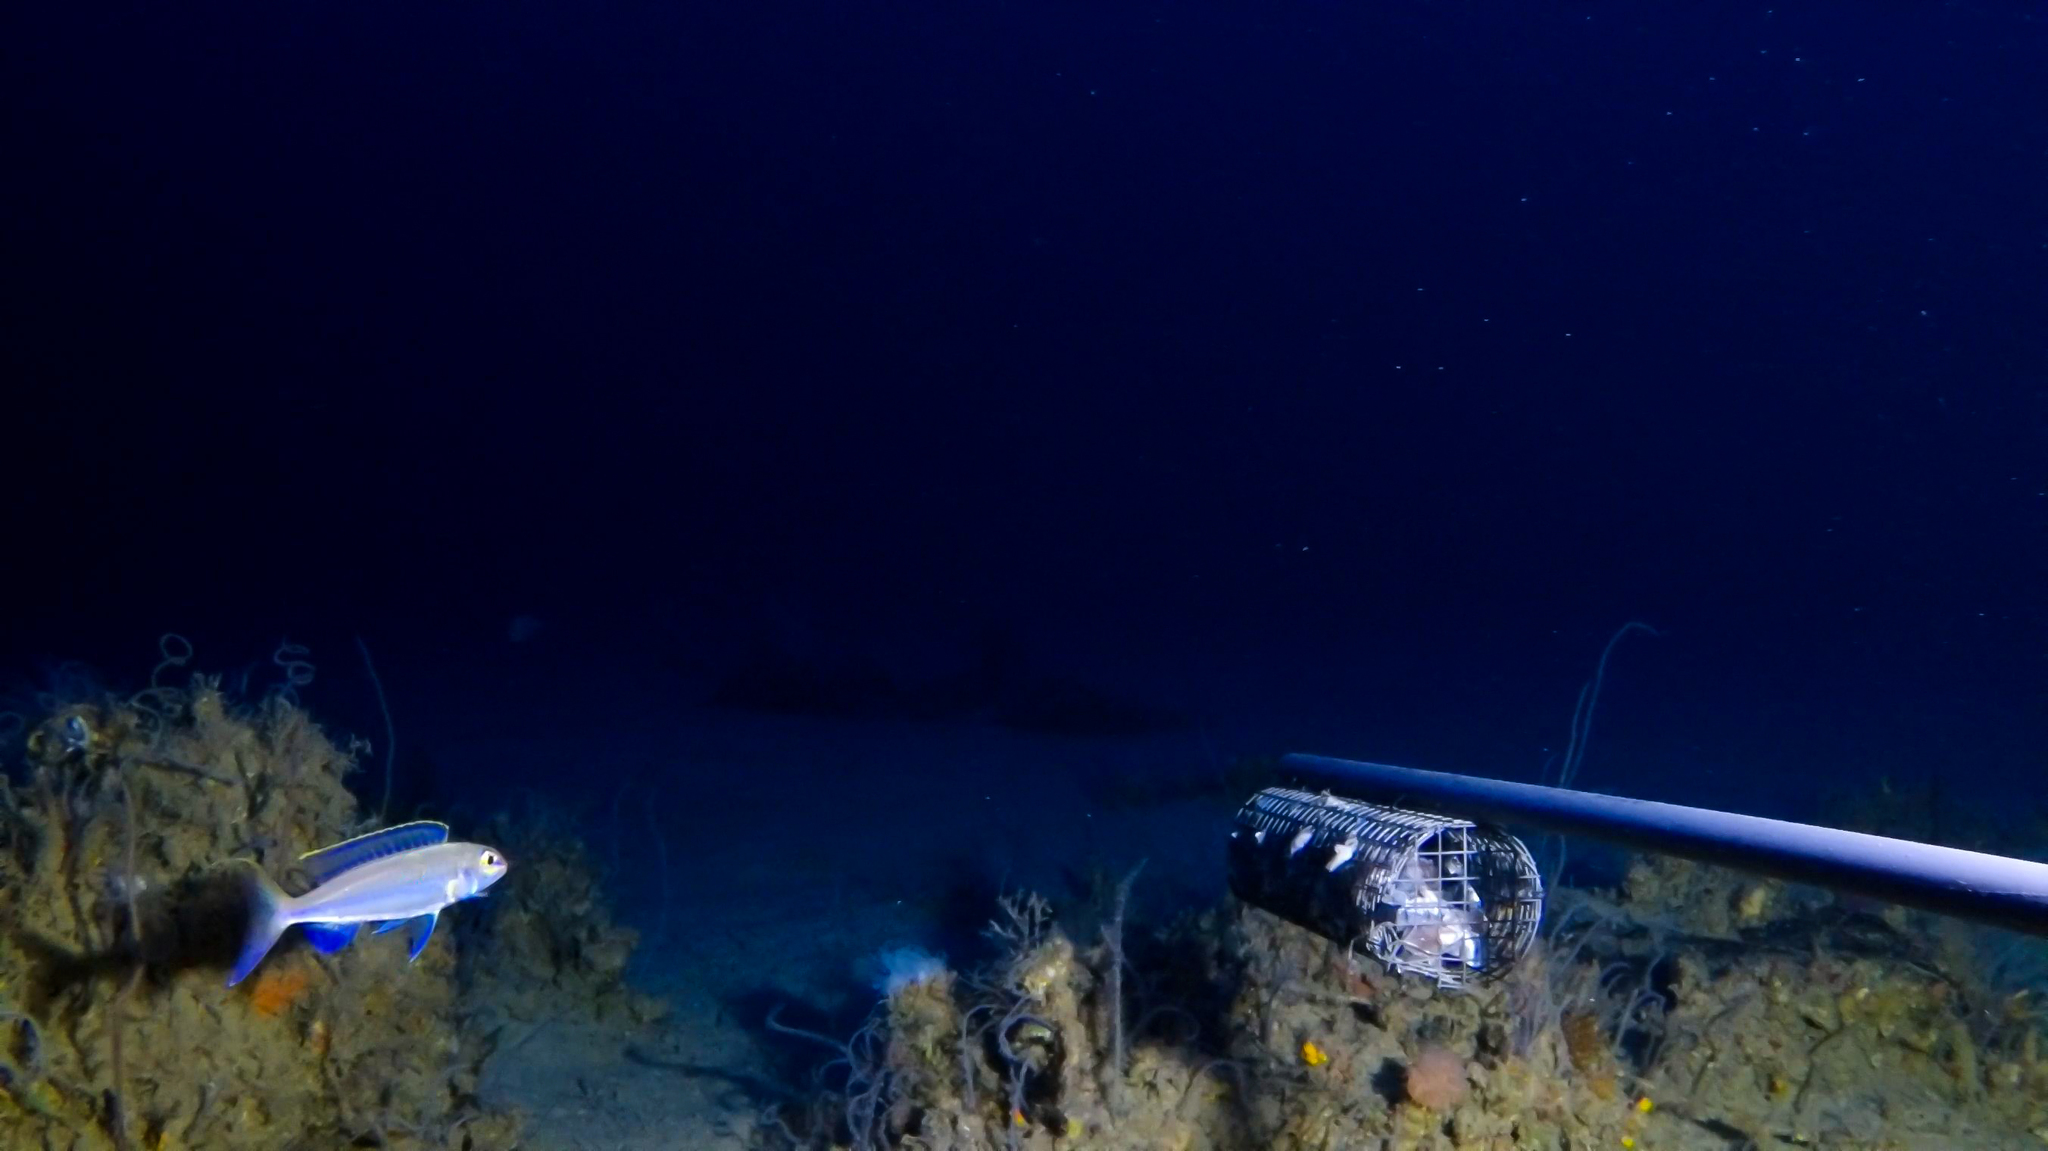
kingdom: Animalia
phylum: Chordata
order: Perciformes
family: Nemipteridae
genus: Nemipterus
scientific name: Nemipterus zysron
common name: Slender threadfin bream
